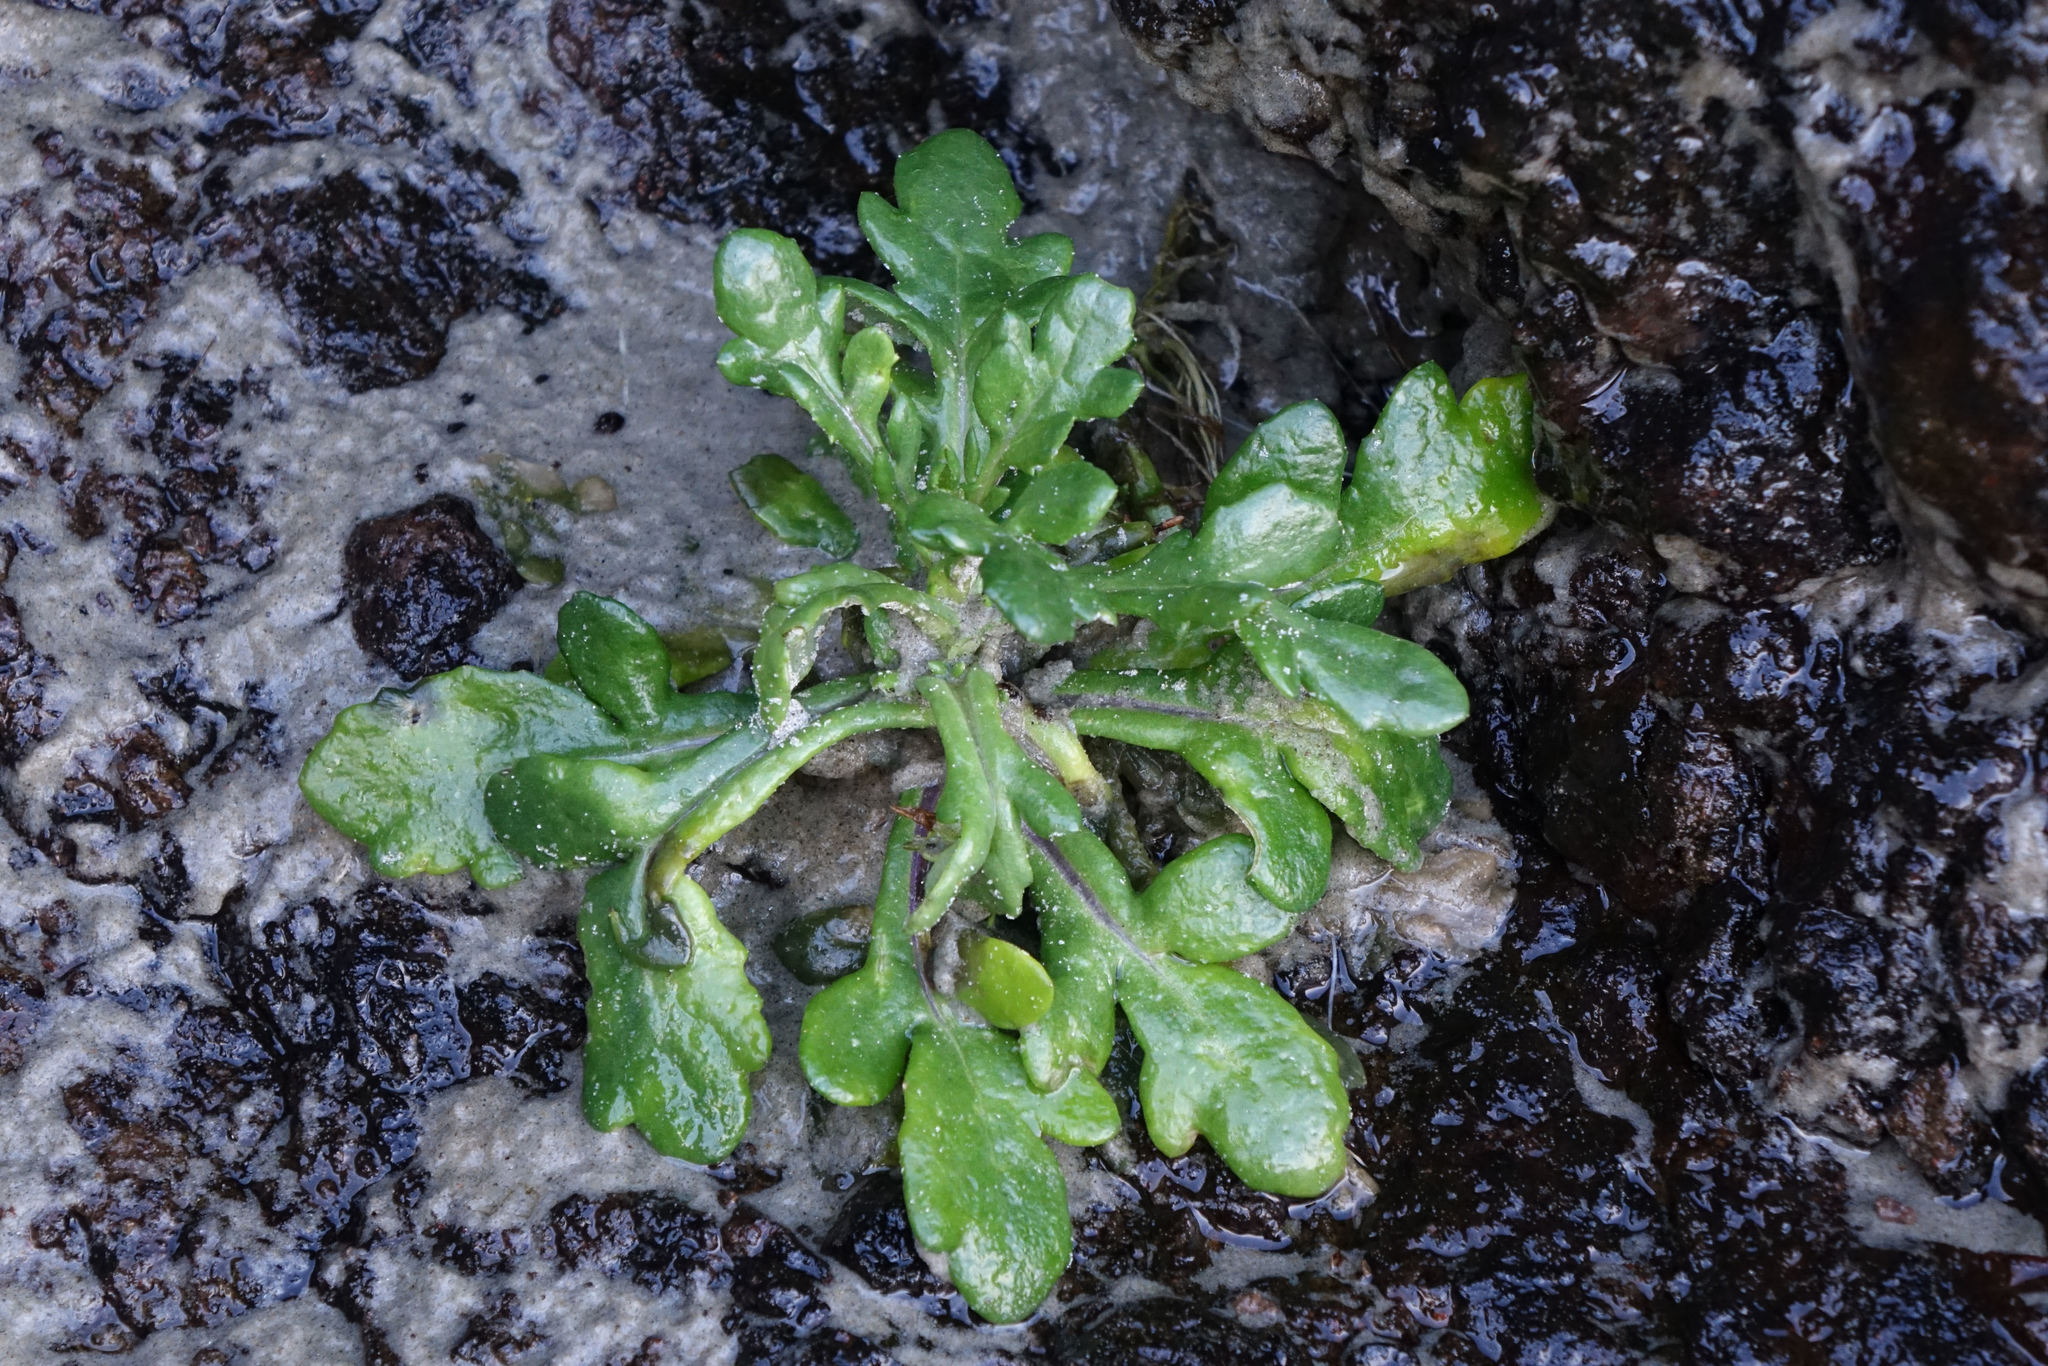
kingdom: Plantae
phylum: Tracheophyta
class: Magnoliopsida
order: Asterales
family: Asteraceae
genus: Senecio
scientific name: Senecio carnosulus
